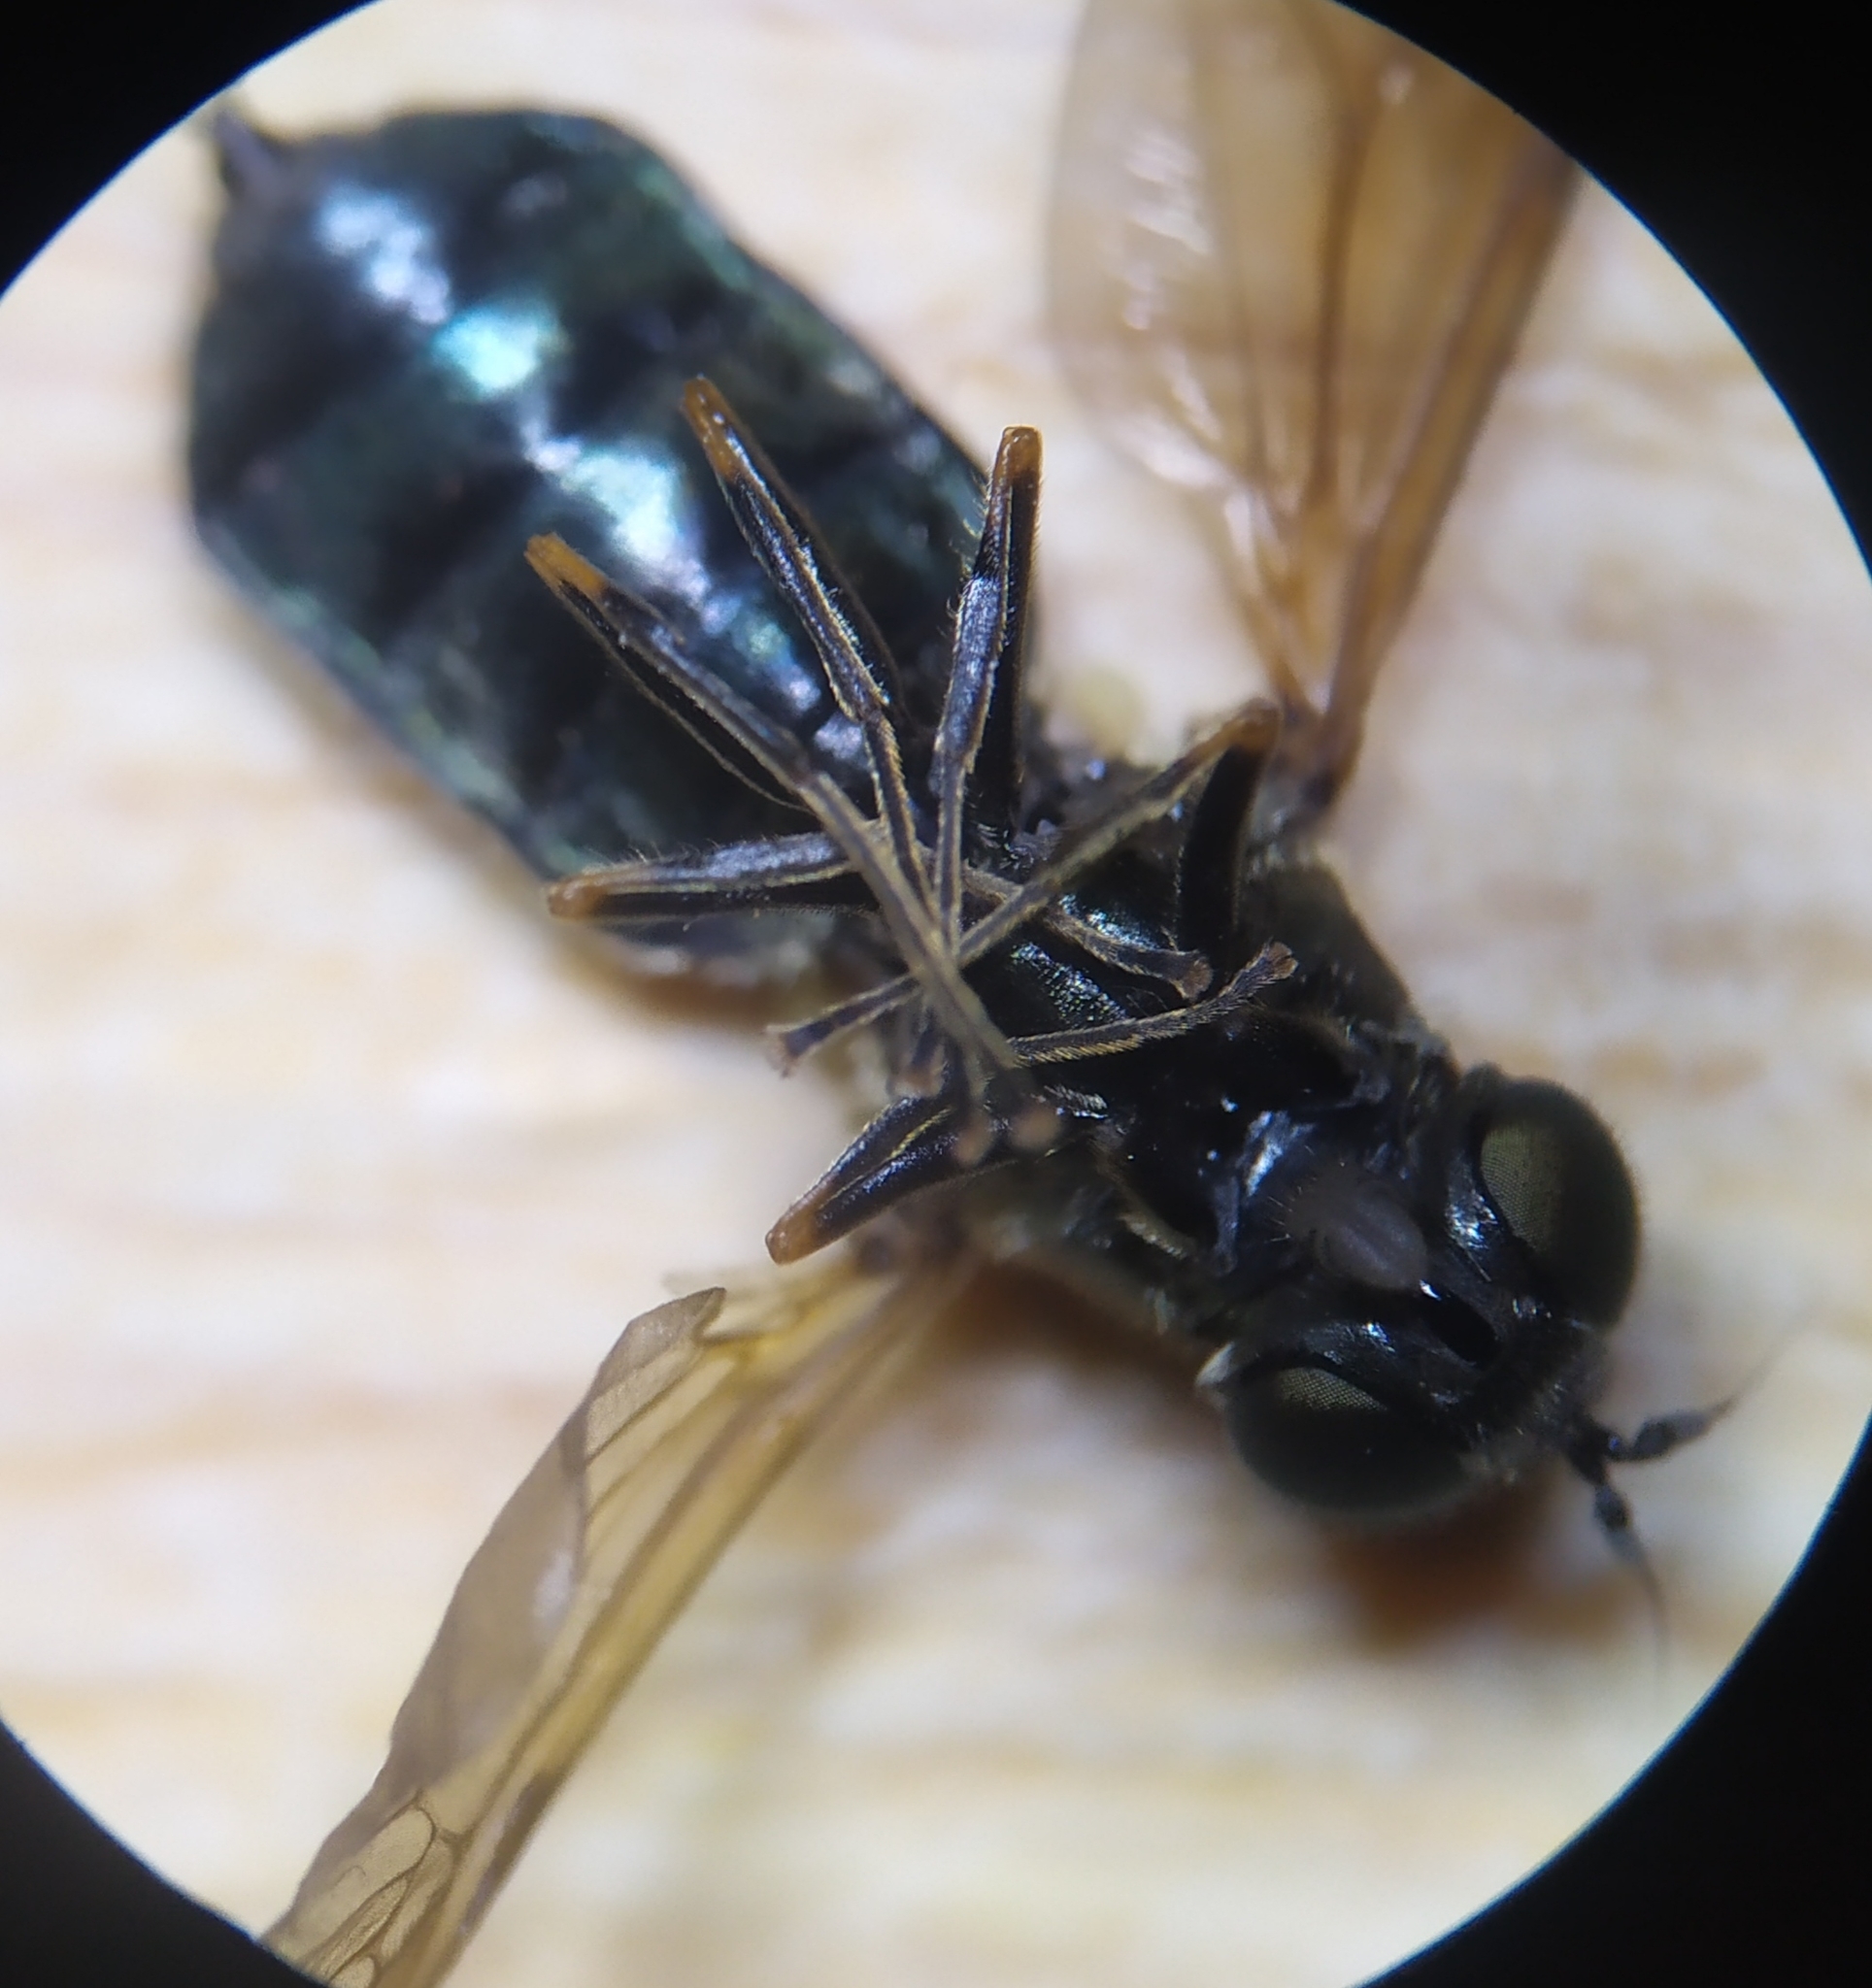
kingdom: Animalia
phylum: Arthropoda
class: Insecta
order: Diptera
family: Stratiomyidae
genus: Chloromyia
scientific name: Chloromyia formosa
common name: Soldier fly
